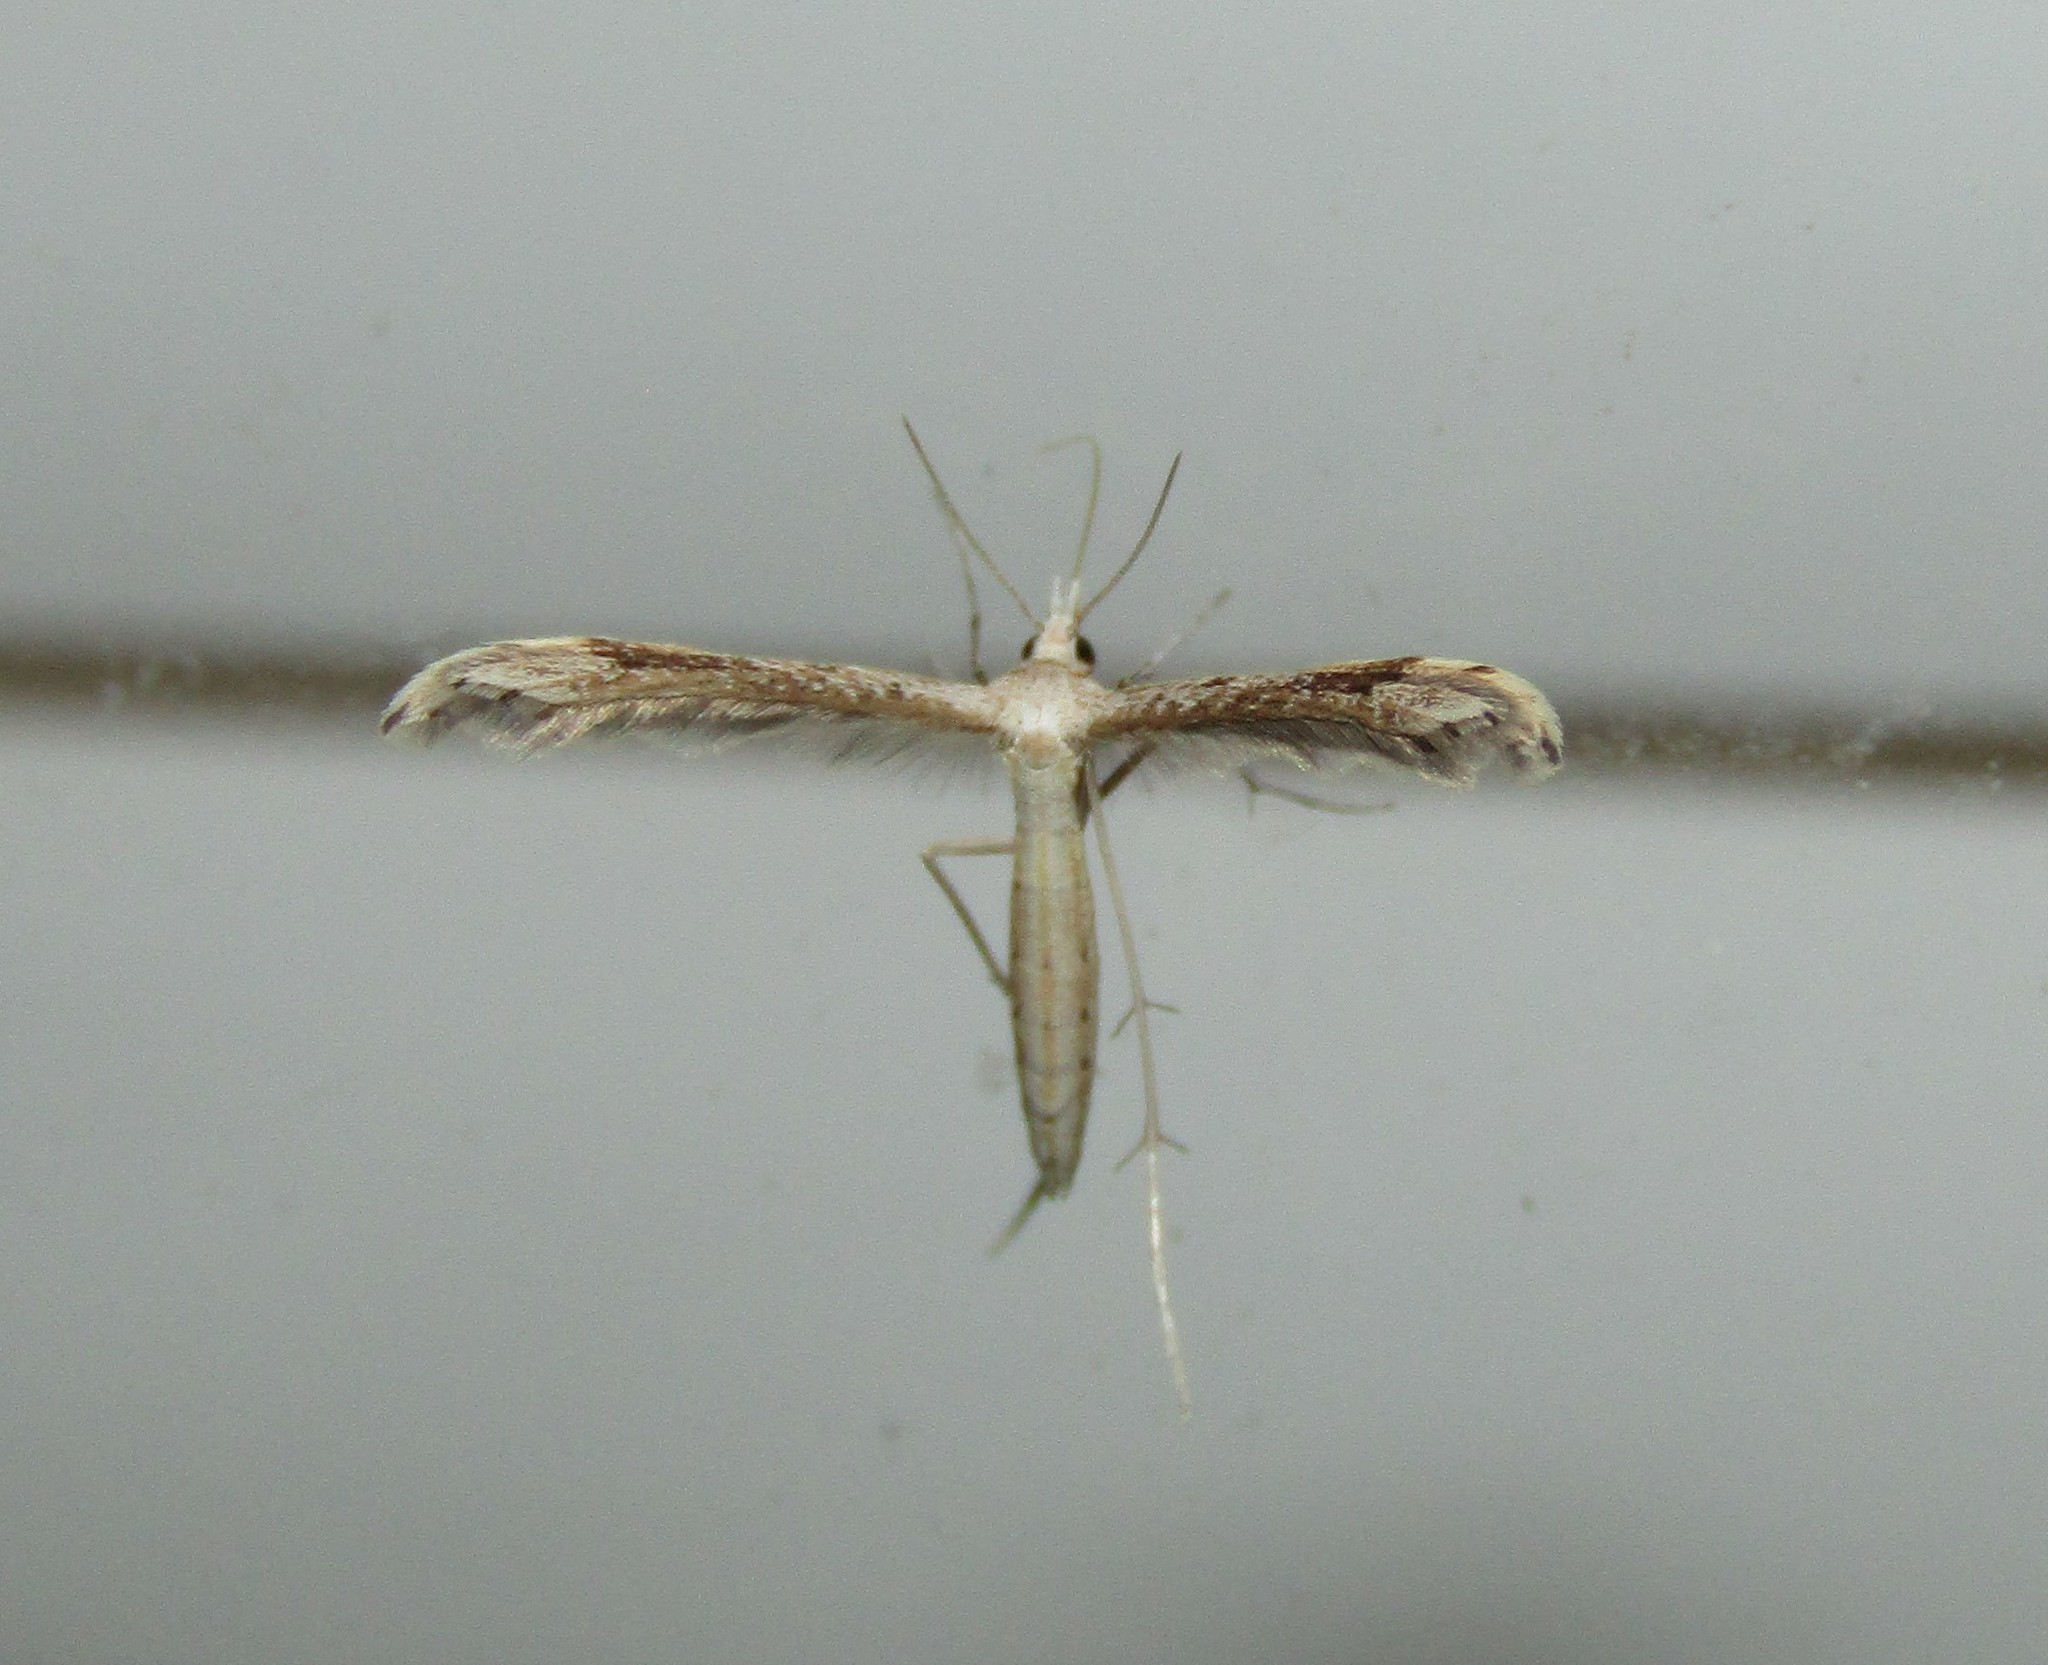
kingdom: Animalia
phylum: Arthropoda
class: Insecta
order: Lepidoptera
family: Pterophoridae
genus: Lioptilodes
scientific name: Lioptilodes albistriolatus
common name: Moth
